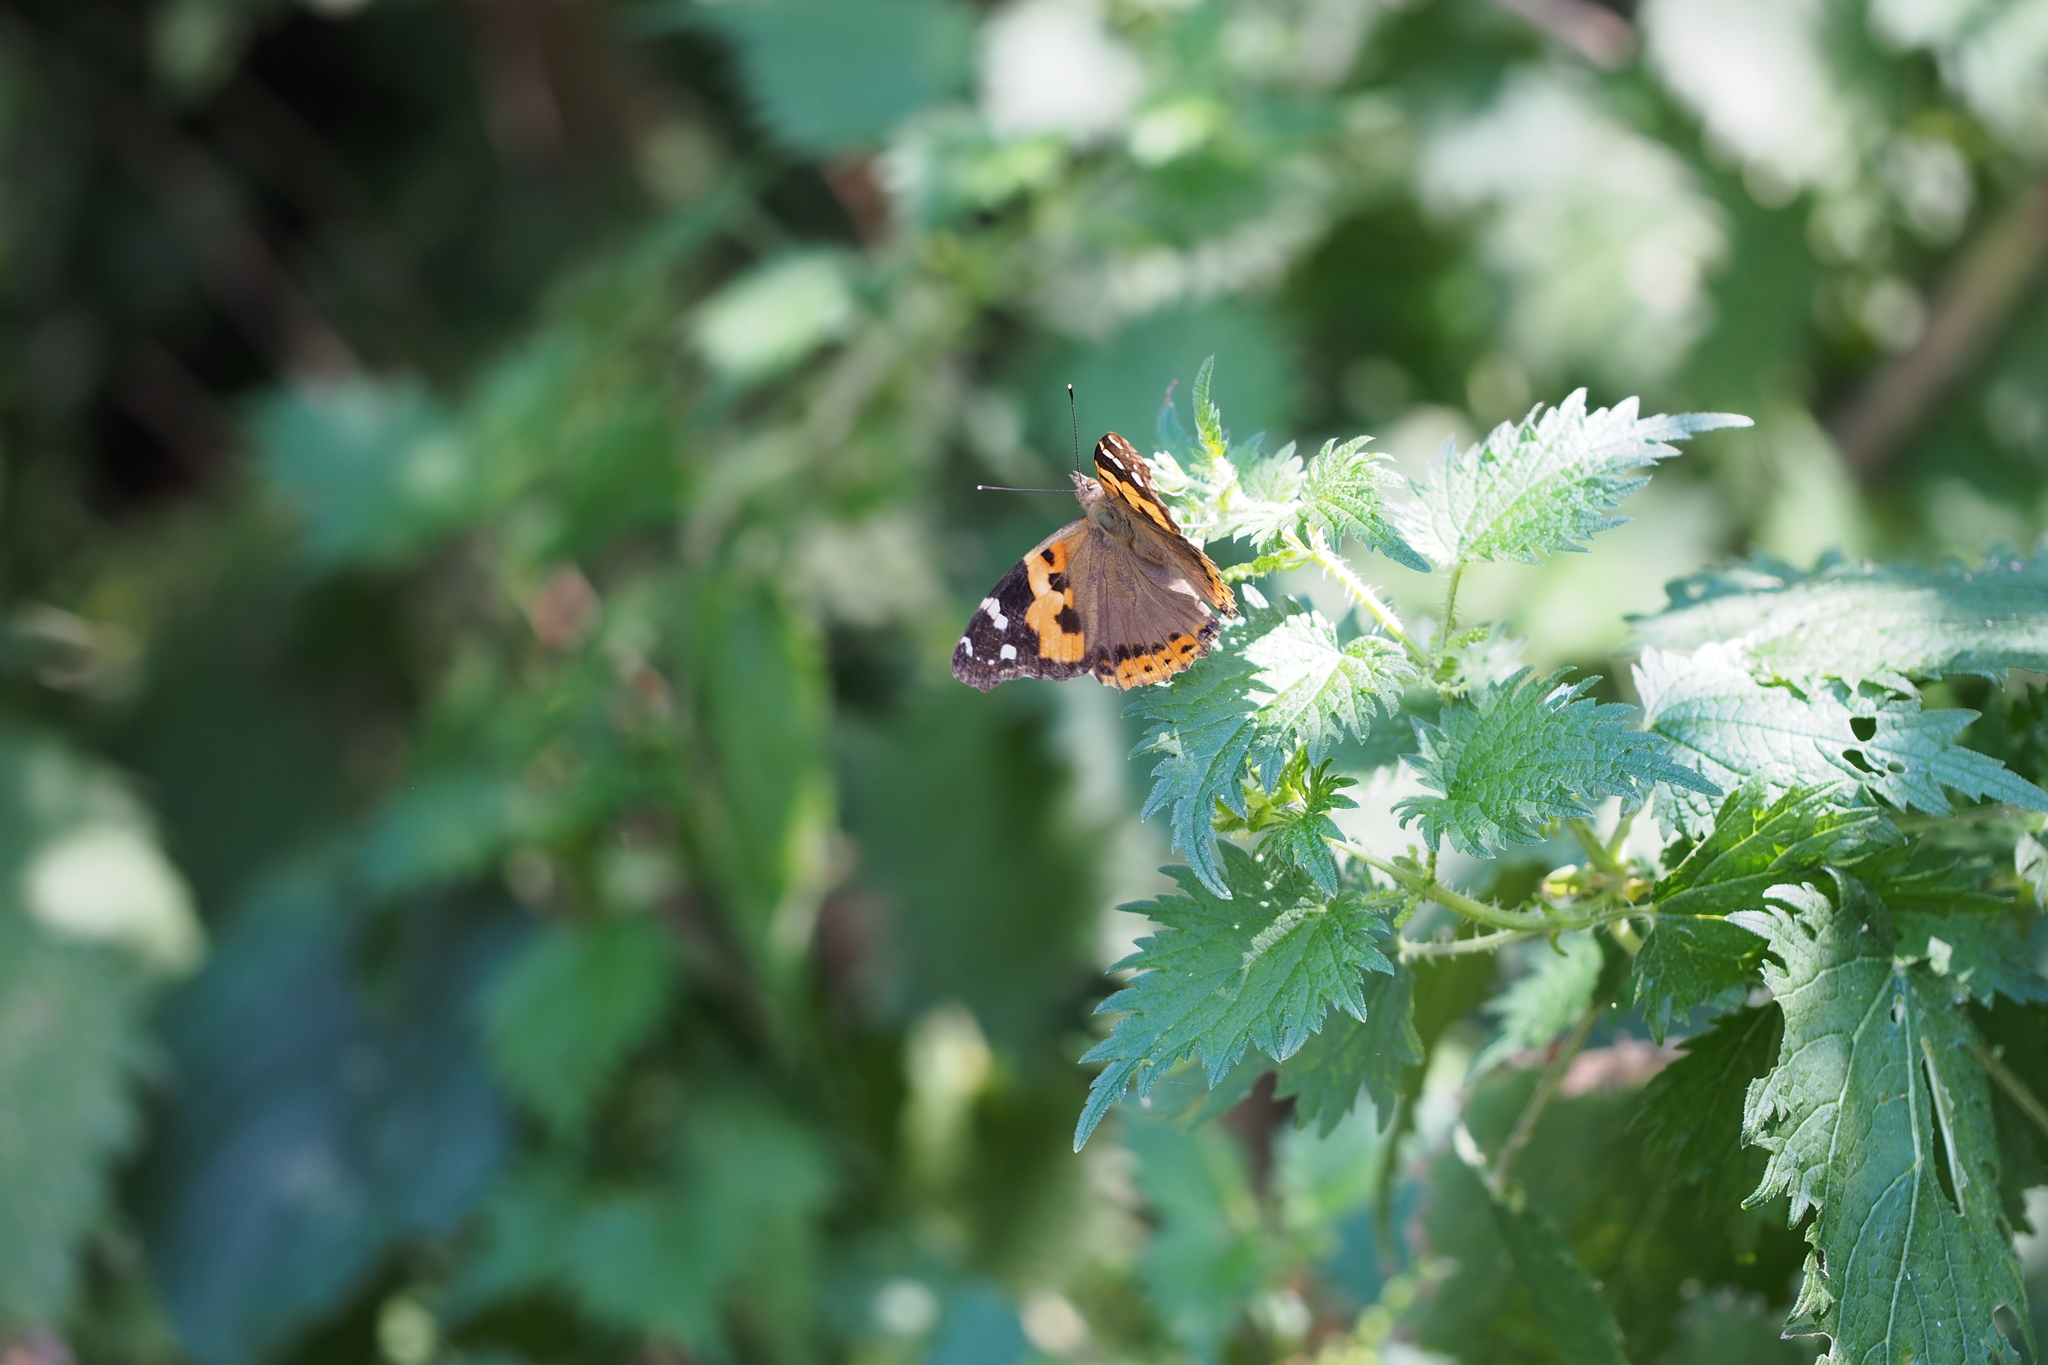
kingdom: Animalia
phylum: Arthropoda
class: Insecta
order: Lepidoptera
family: Nymphalidae
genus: Vanessa
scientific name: Vanessa indica
